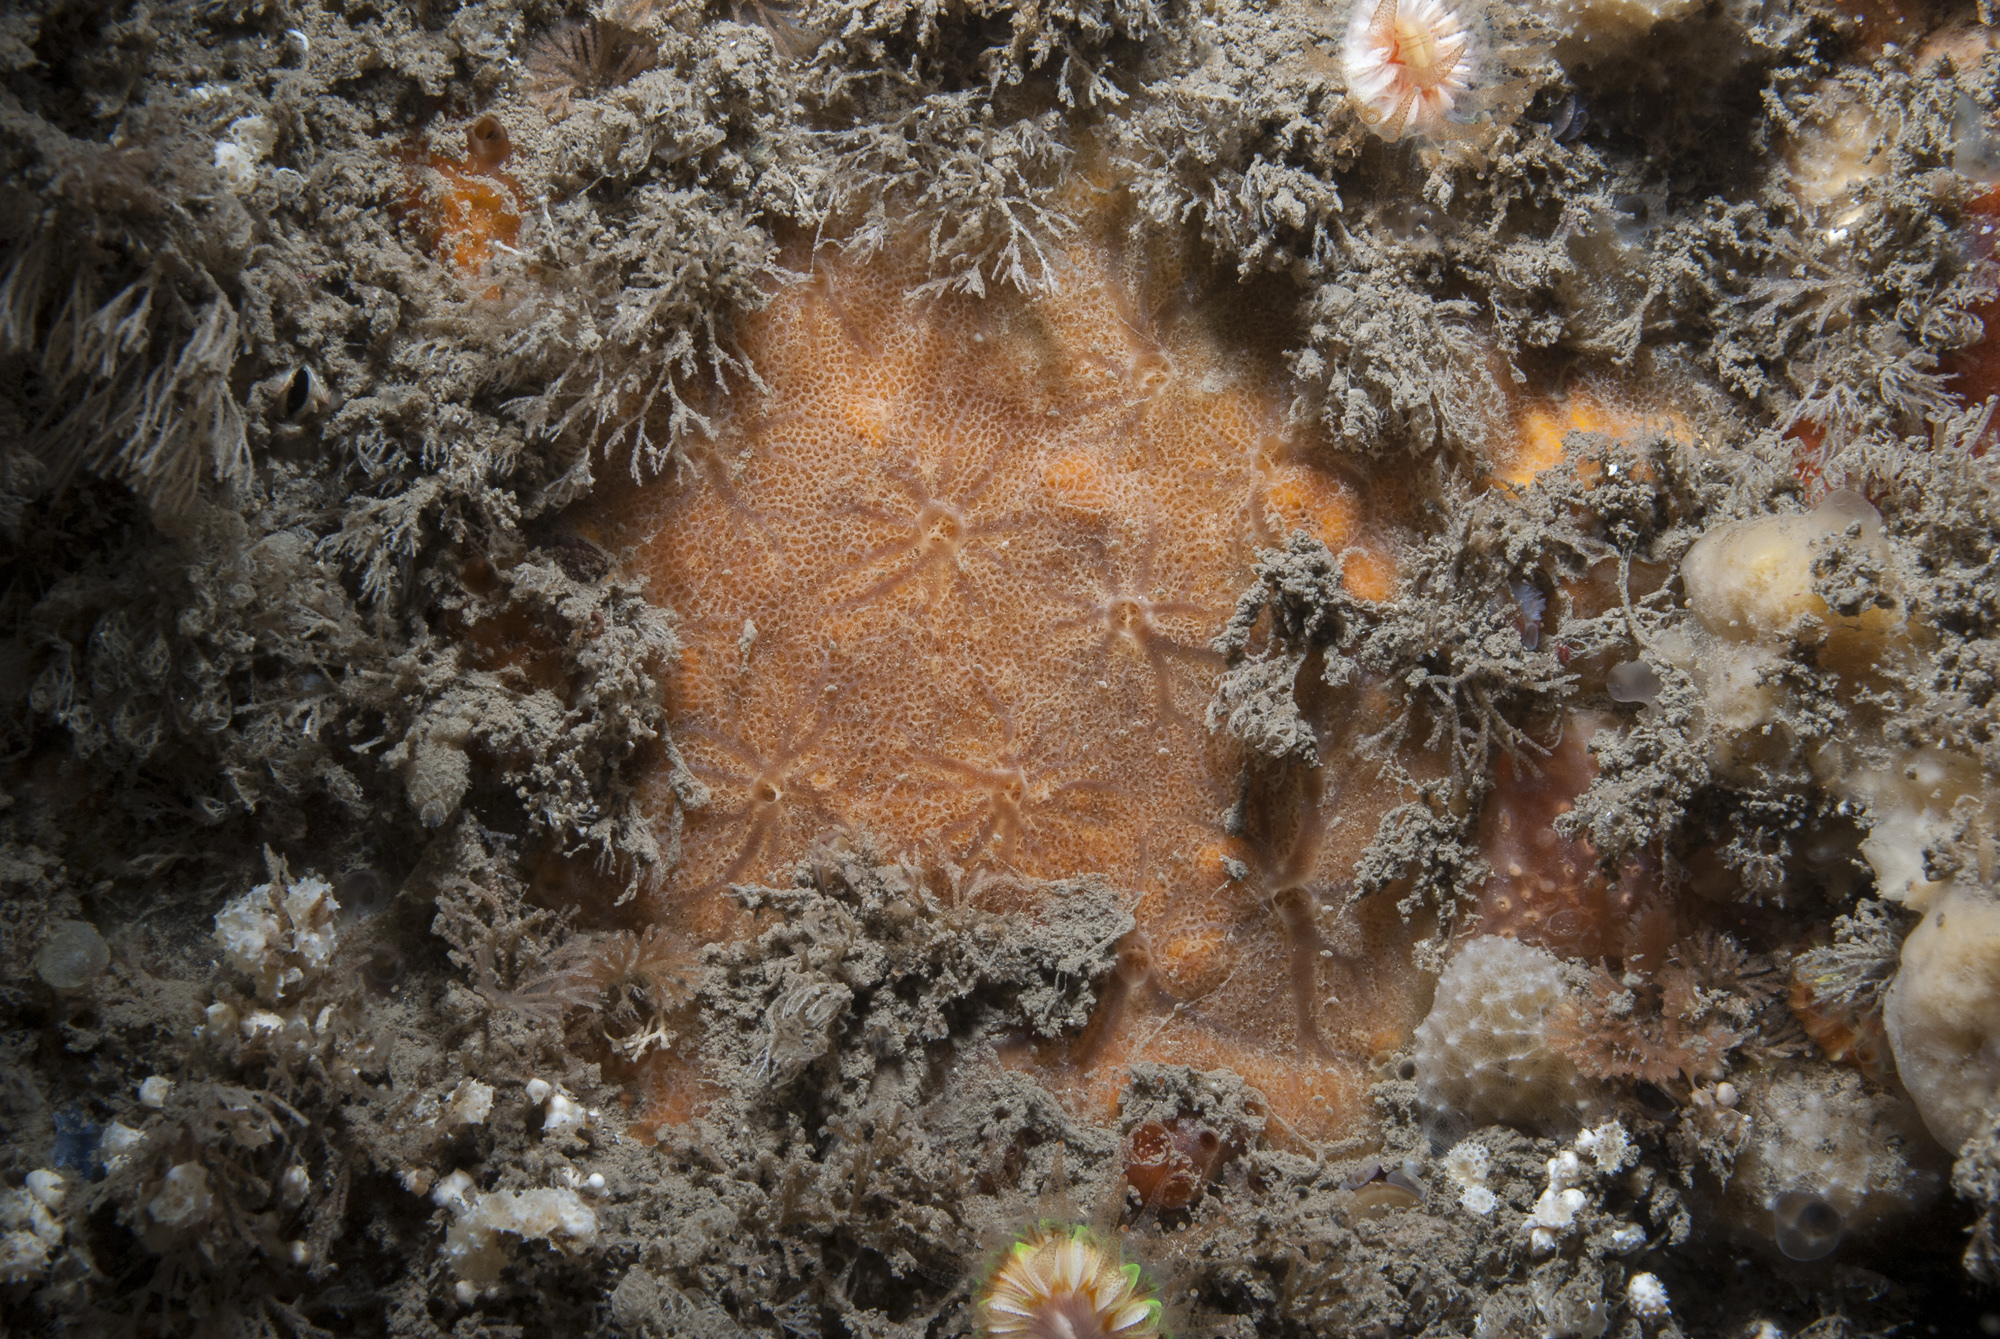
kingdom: Animalia
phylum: Porifera
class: Demospongiae
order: Poecilosclerida
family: Hymedesmiidae
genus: Phorbas
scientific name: Phorbas punctatus
